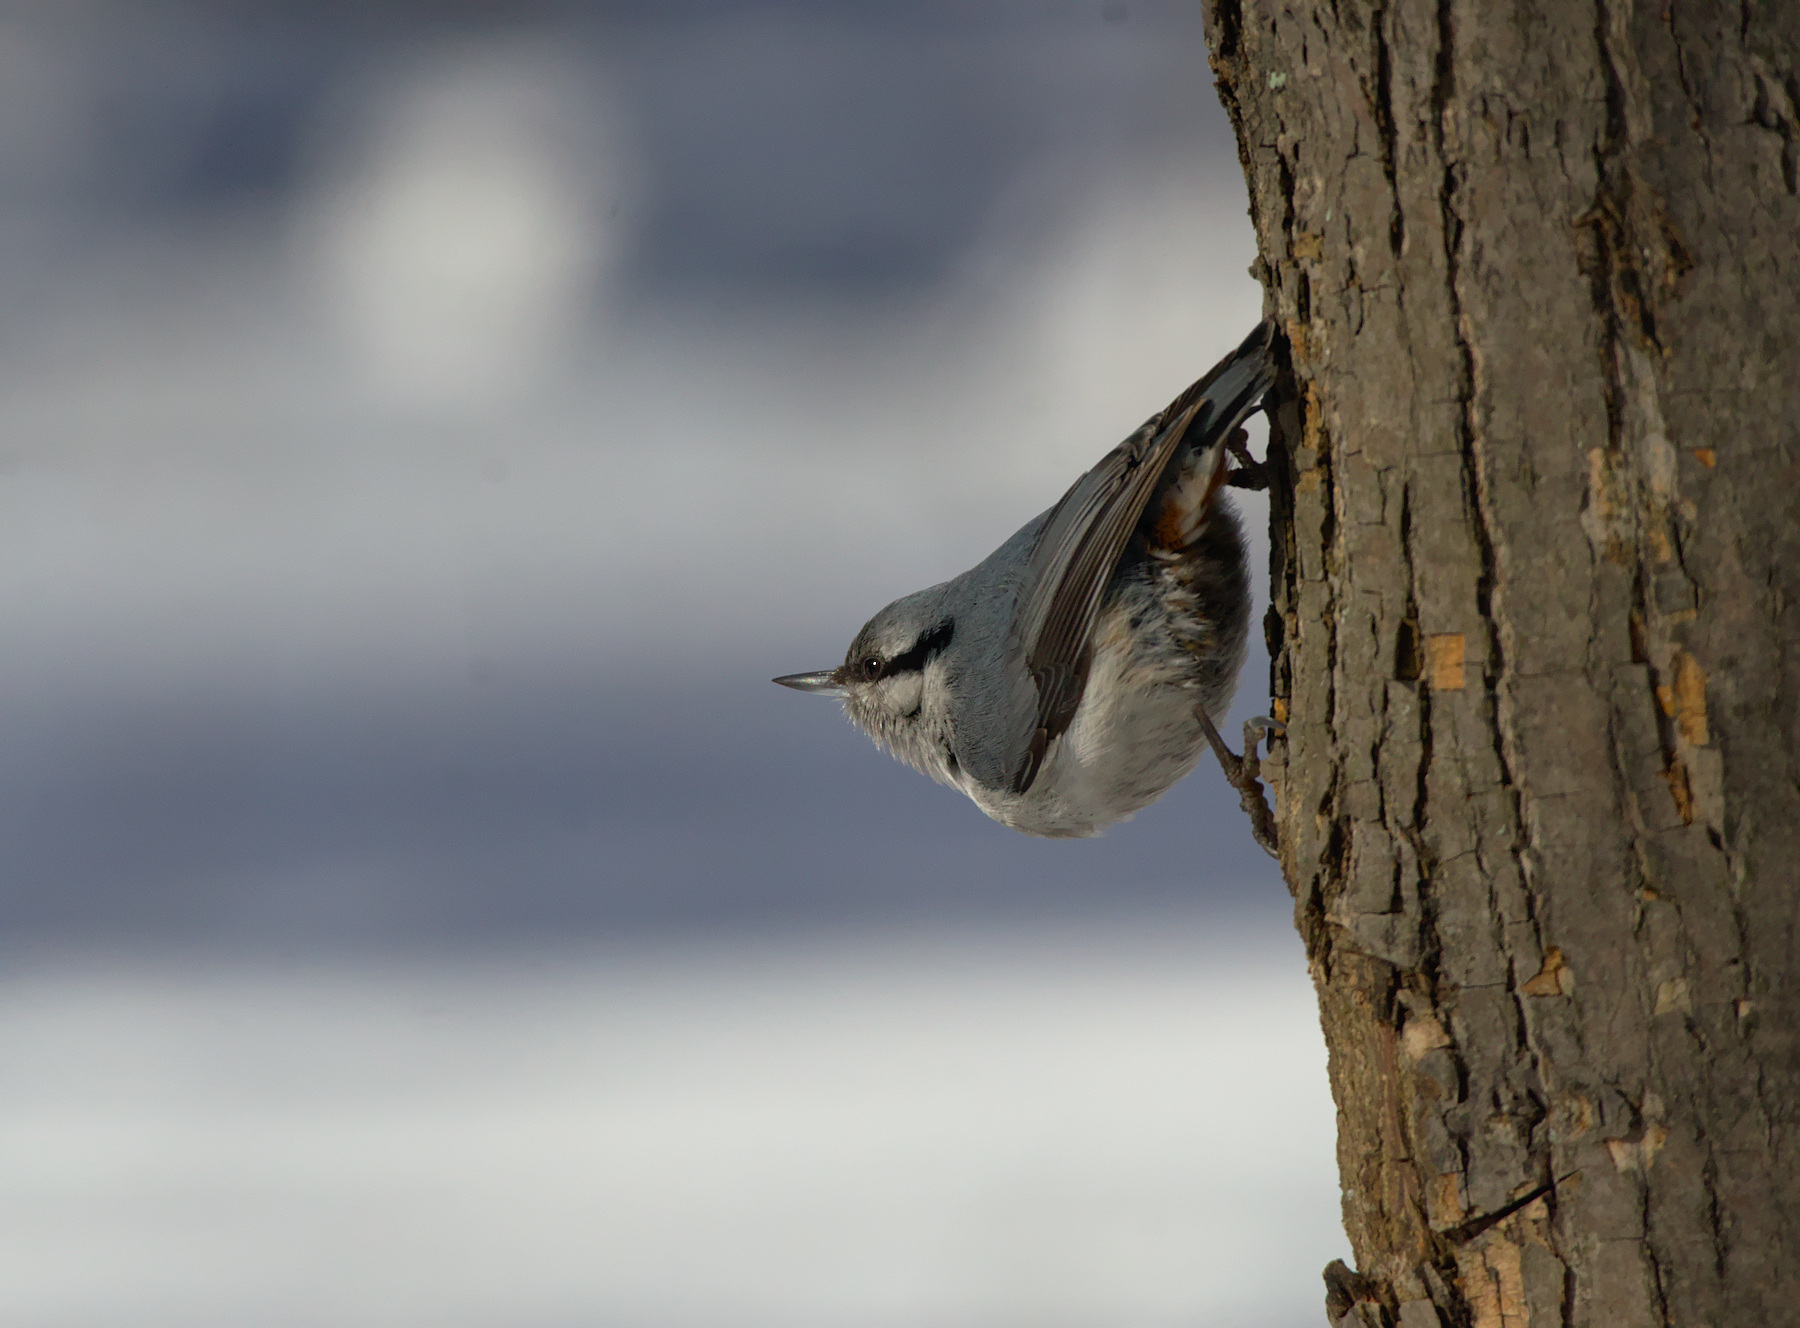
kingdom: Animalia
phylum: Chordata
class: Aves
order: Passeriformes
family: Sittidae
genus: Sitta
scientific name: Sitta europaea
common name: Eurasian nuthatch
